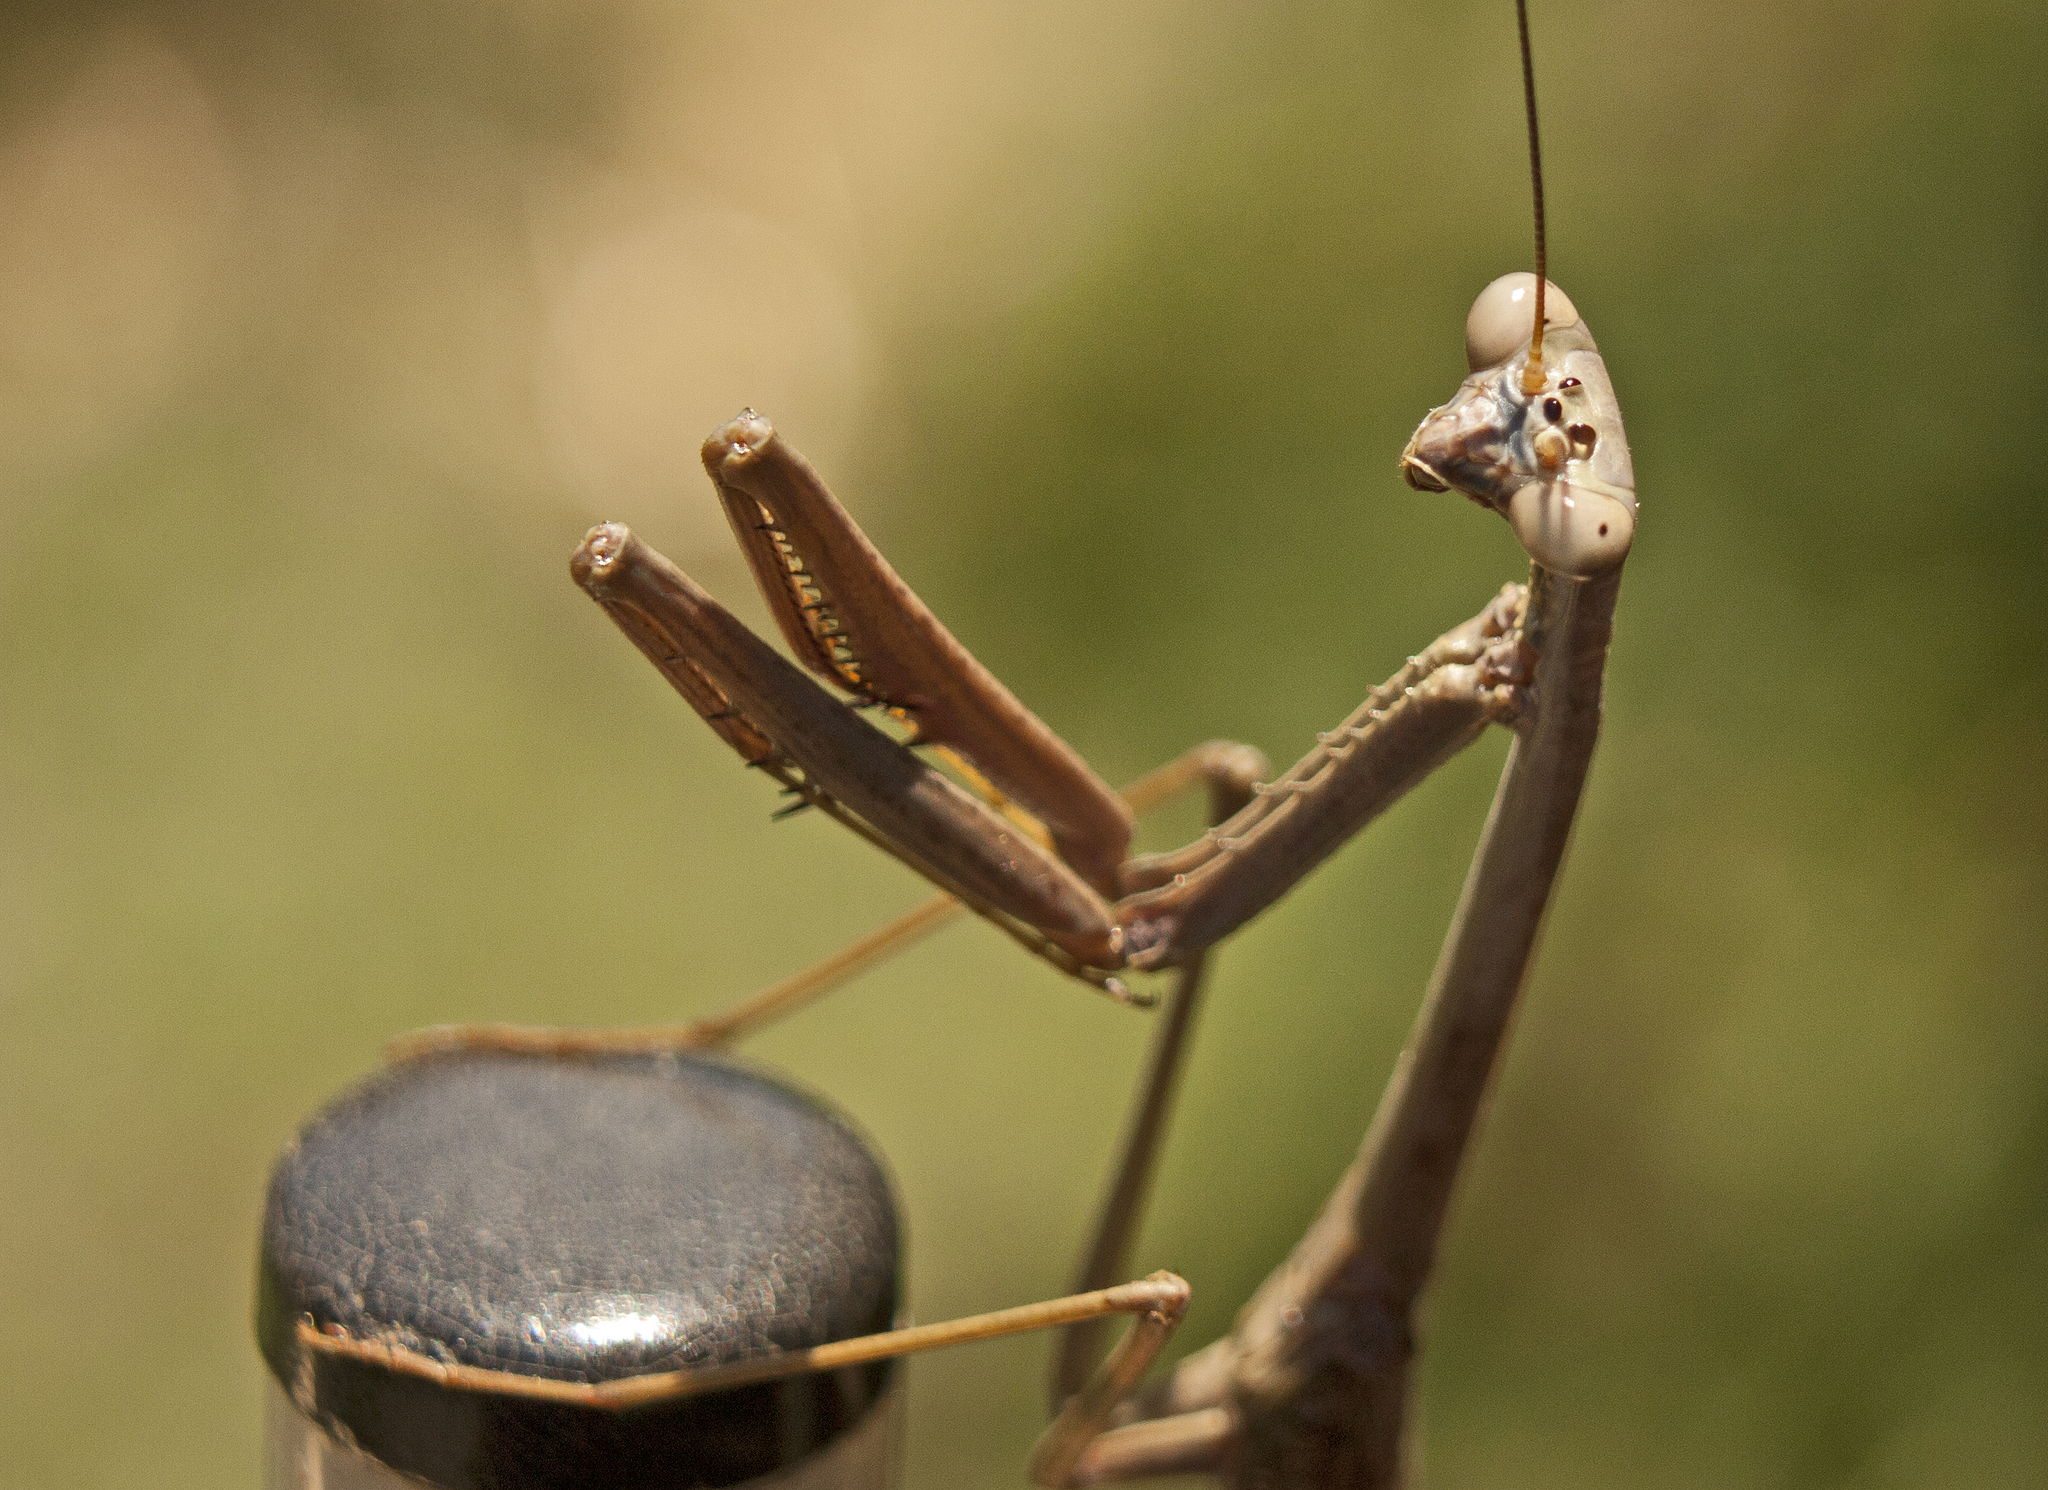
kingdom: Animalia
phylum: Arthropoda
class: Insecta
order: Mantodea
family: Mantidae
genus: Archimantis
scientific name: Archimantis latistyla
